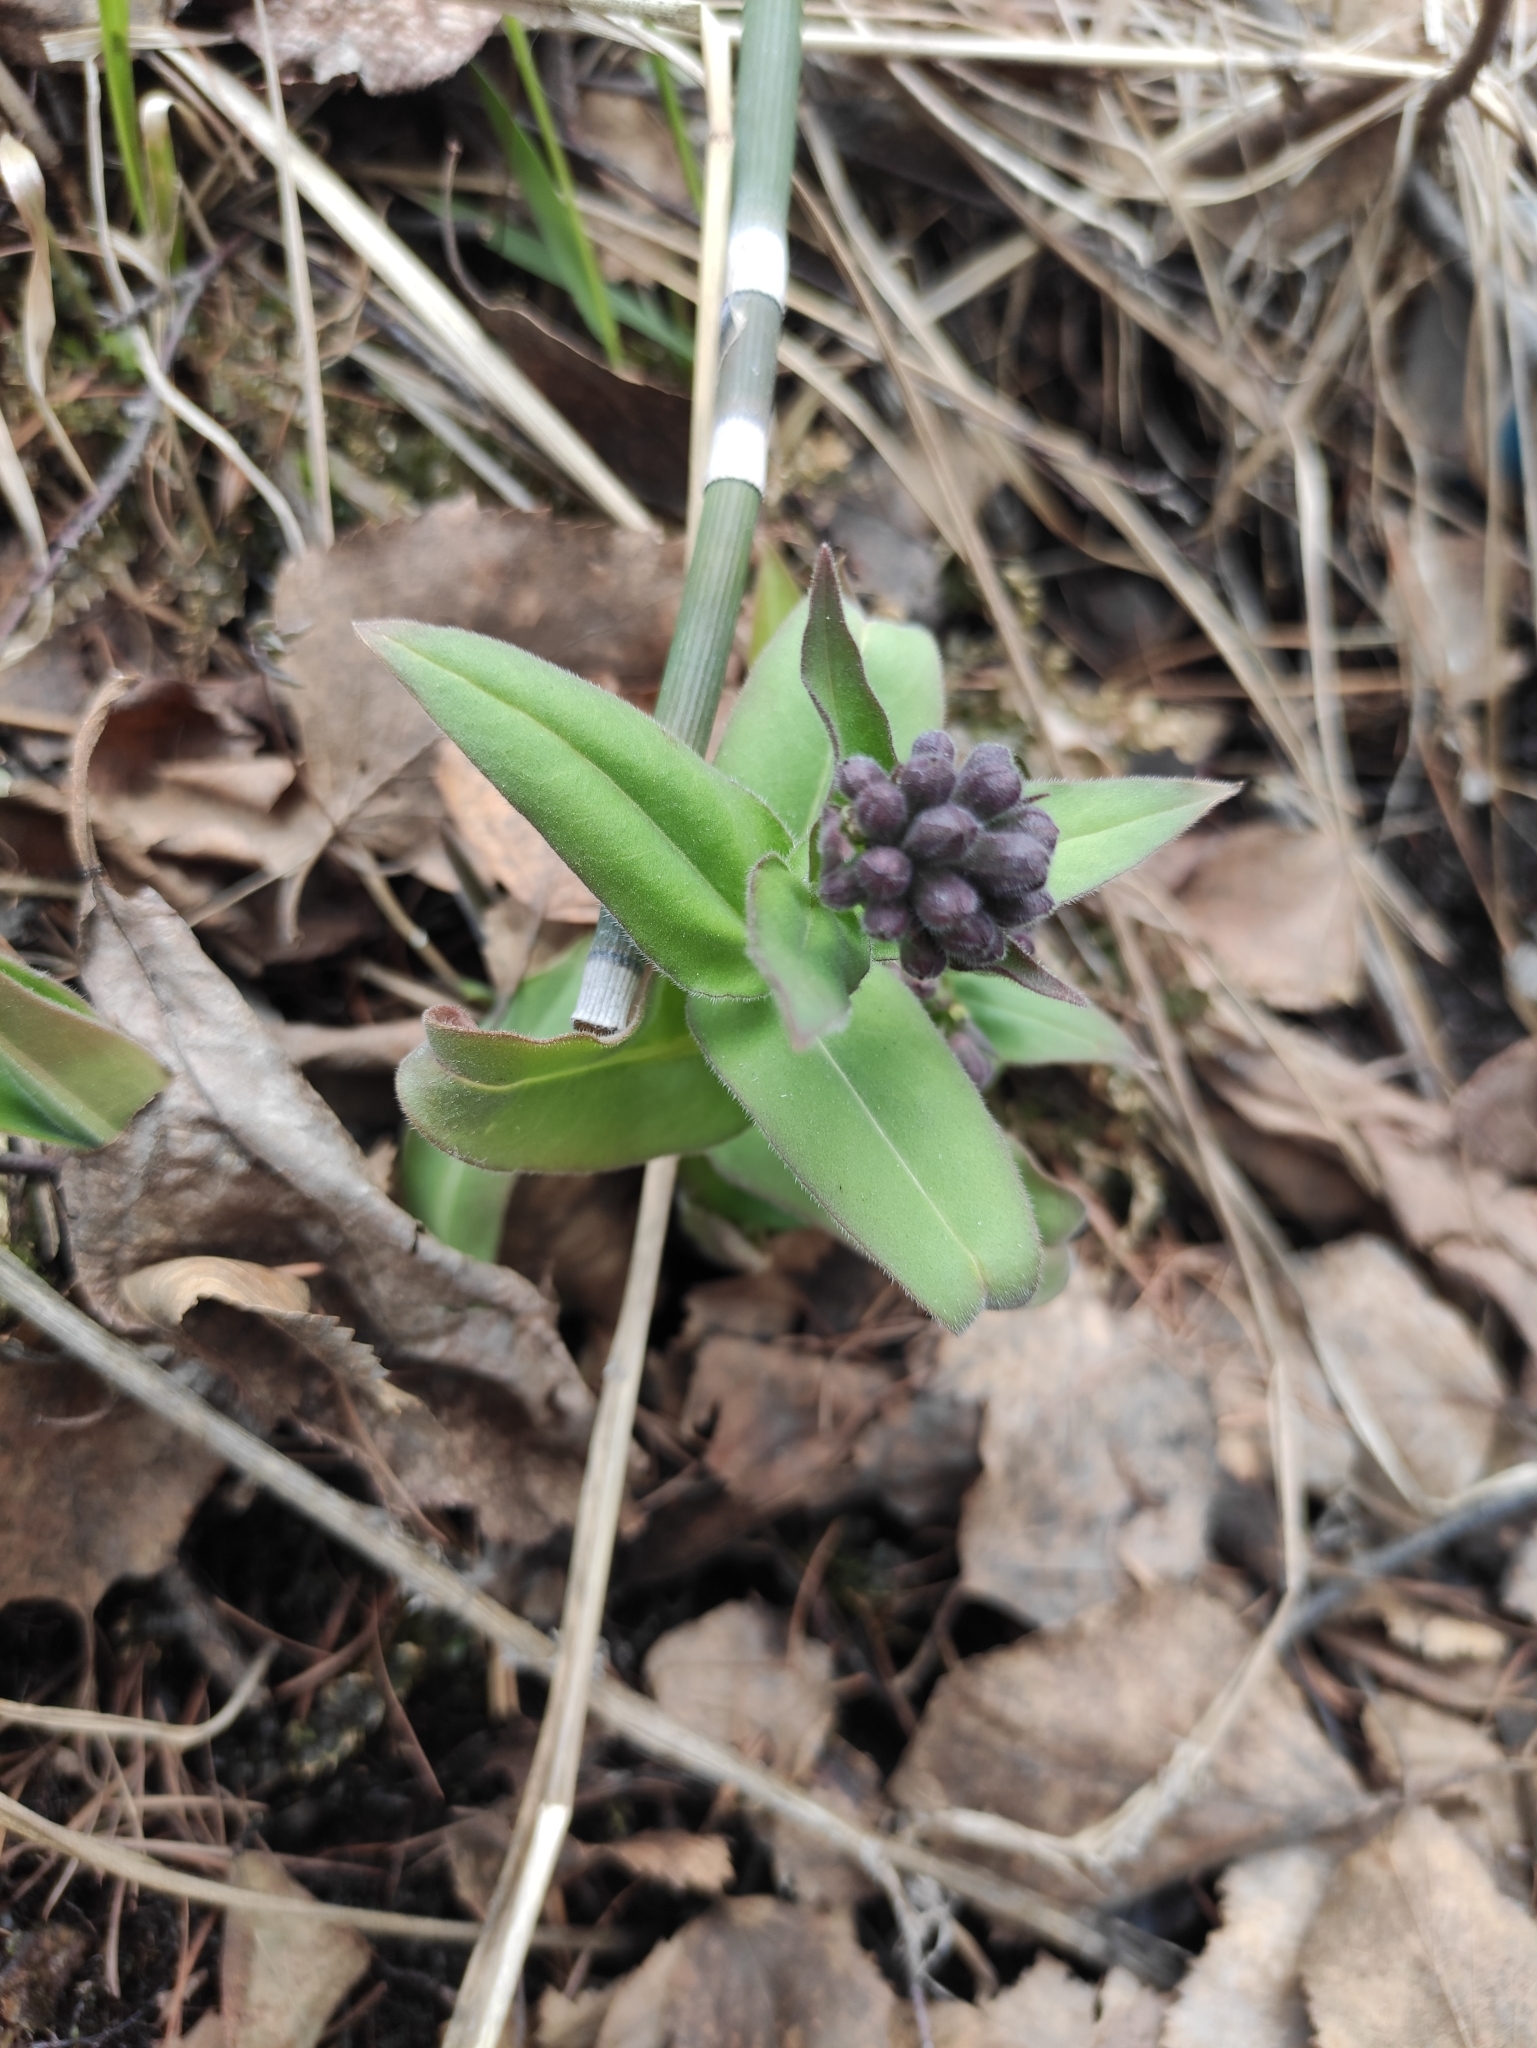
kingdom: Plantae
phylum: Tracheophyta
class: Magnoliopsida
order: Boraginales
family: Boraginaceae
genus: Pulmonaria
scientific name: Pulmonaria mollis
